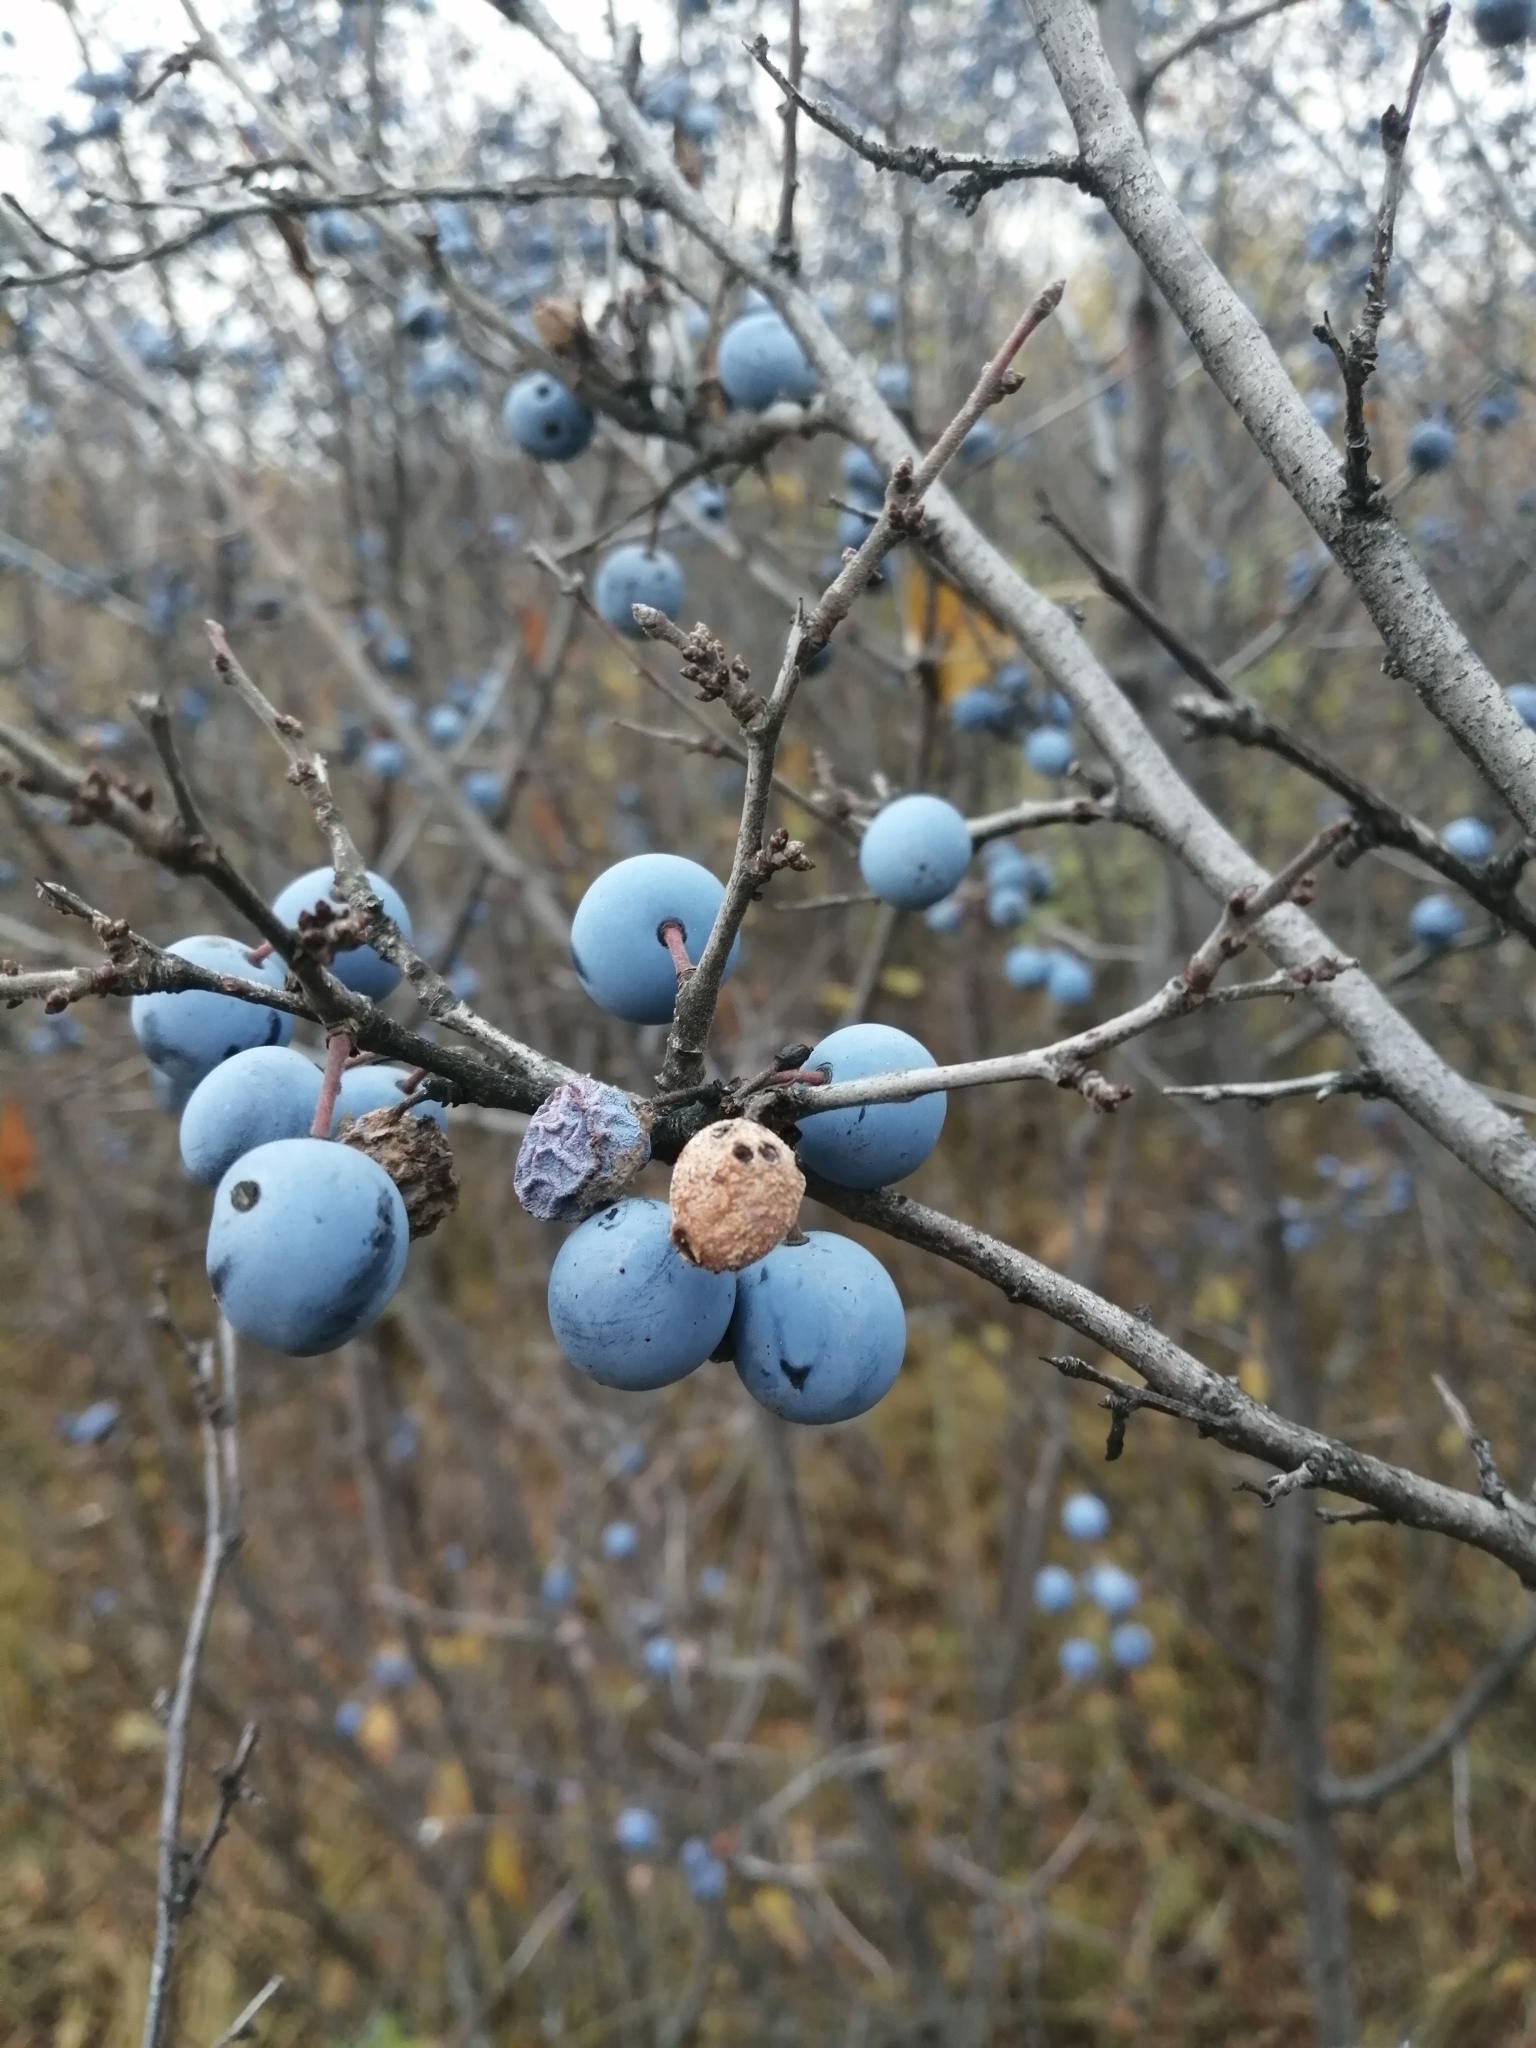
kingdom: Plantae
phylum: Tracheophyta
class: Magnoliopsida
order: Rosales
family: Rosaceae
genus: Prunus
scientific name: Prunus spinosa
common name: Blackthorn
